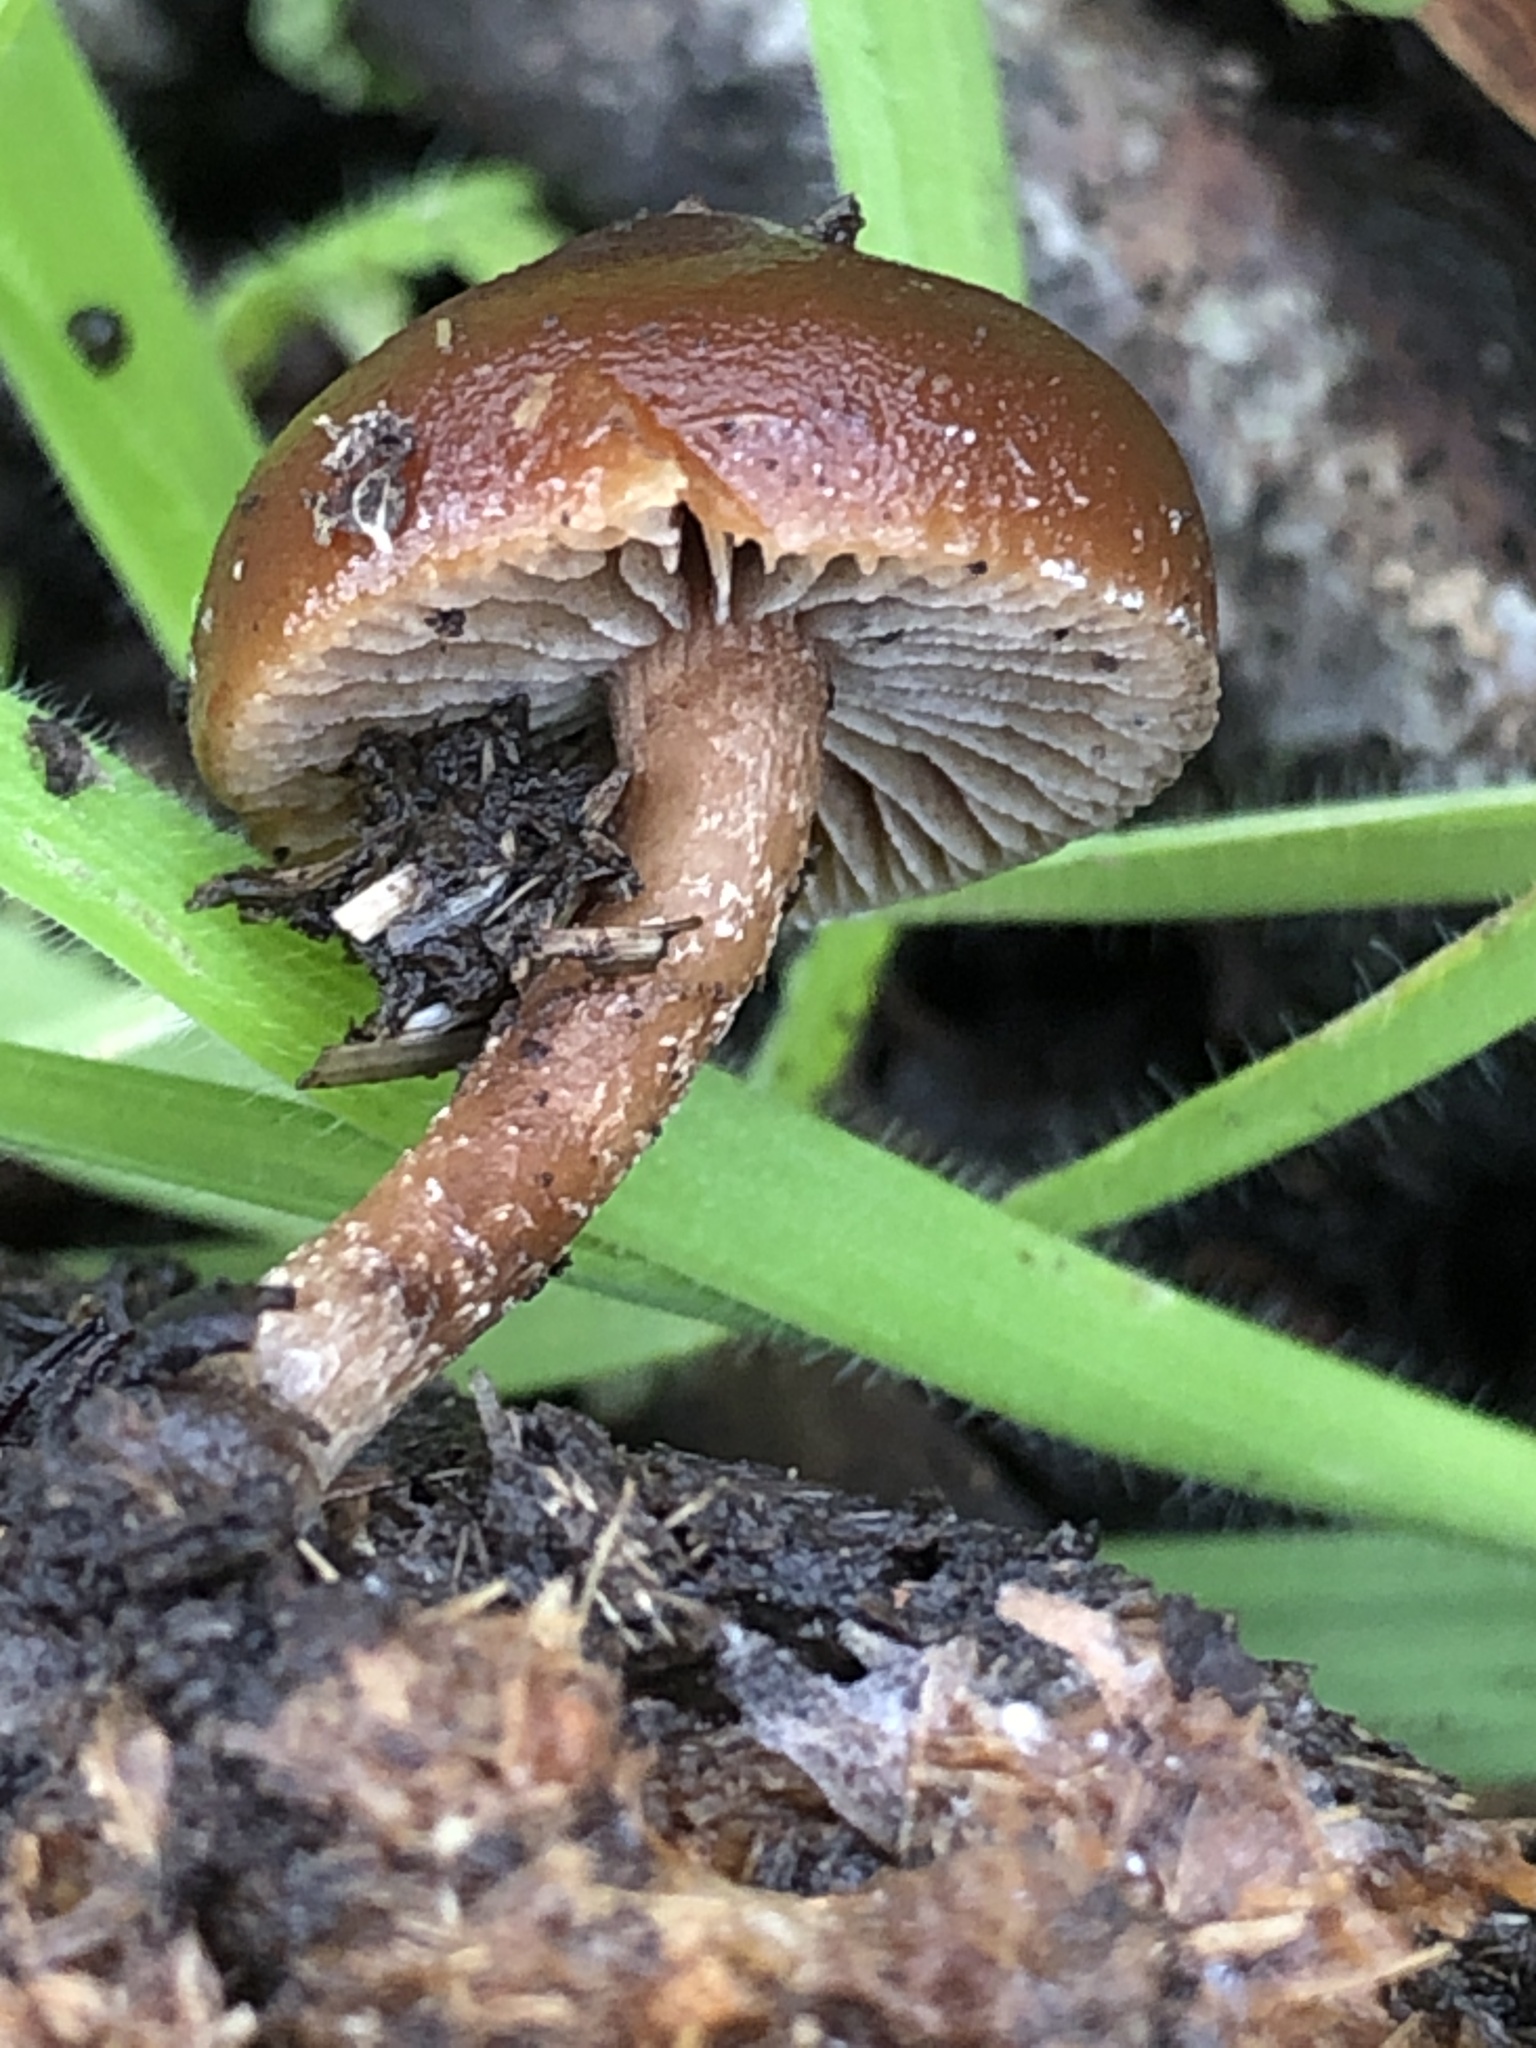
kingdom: Fungi
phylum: Basidiomycota
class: Agaricomycetes
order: Agaricales
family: Strophariaceae
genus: Deconica
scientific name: Deconica coprophila
